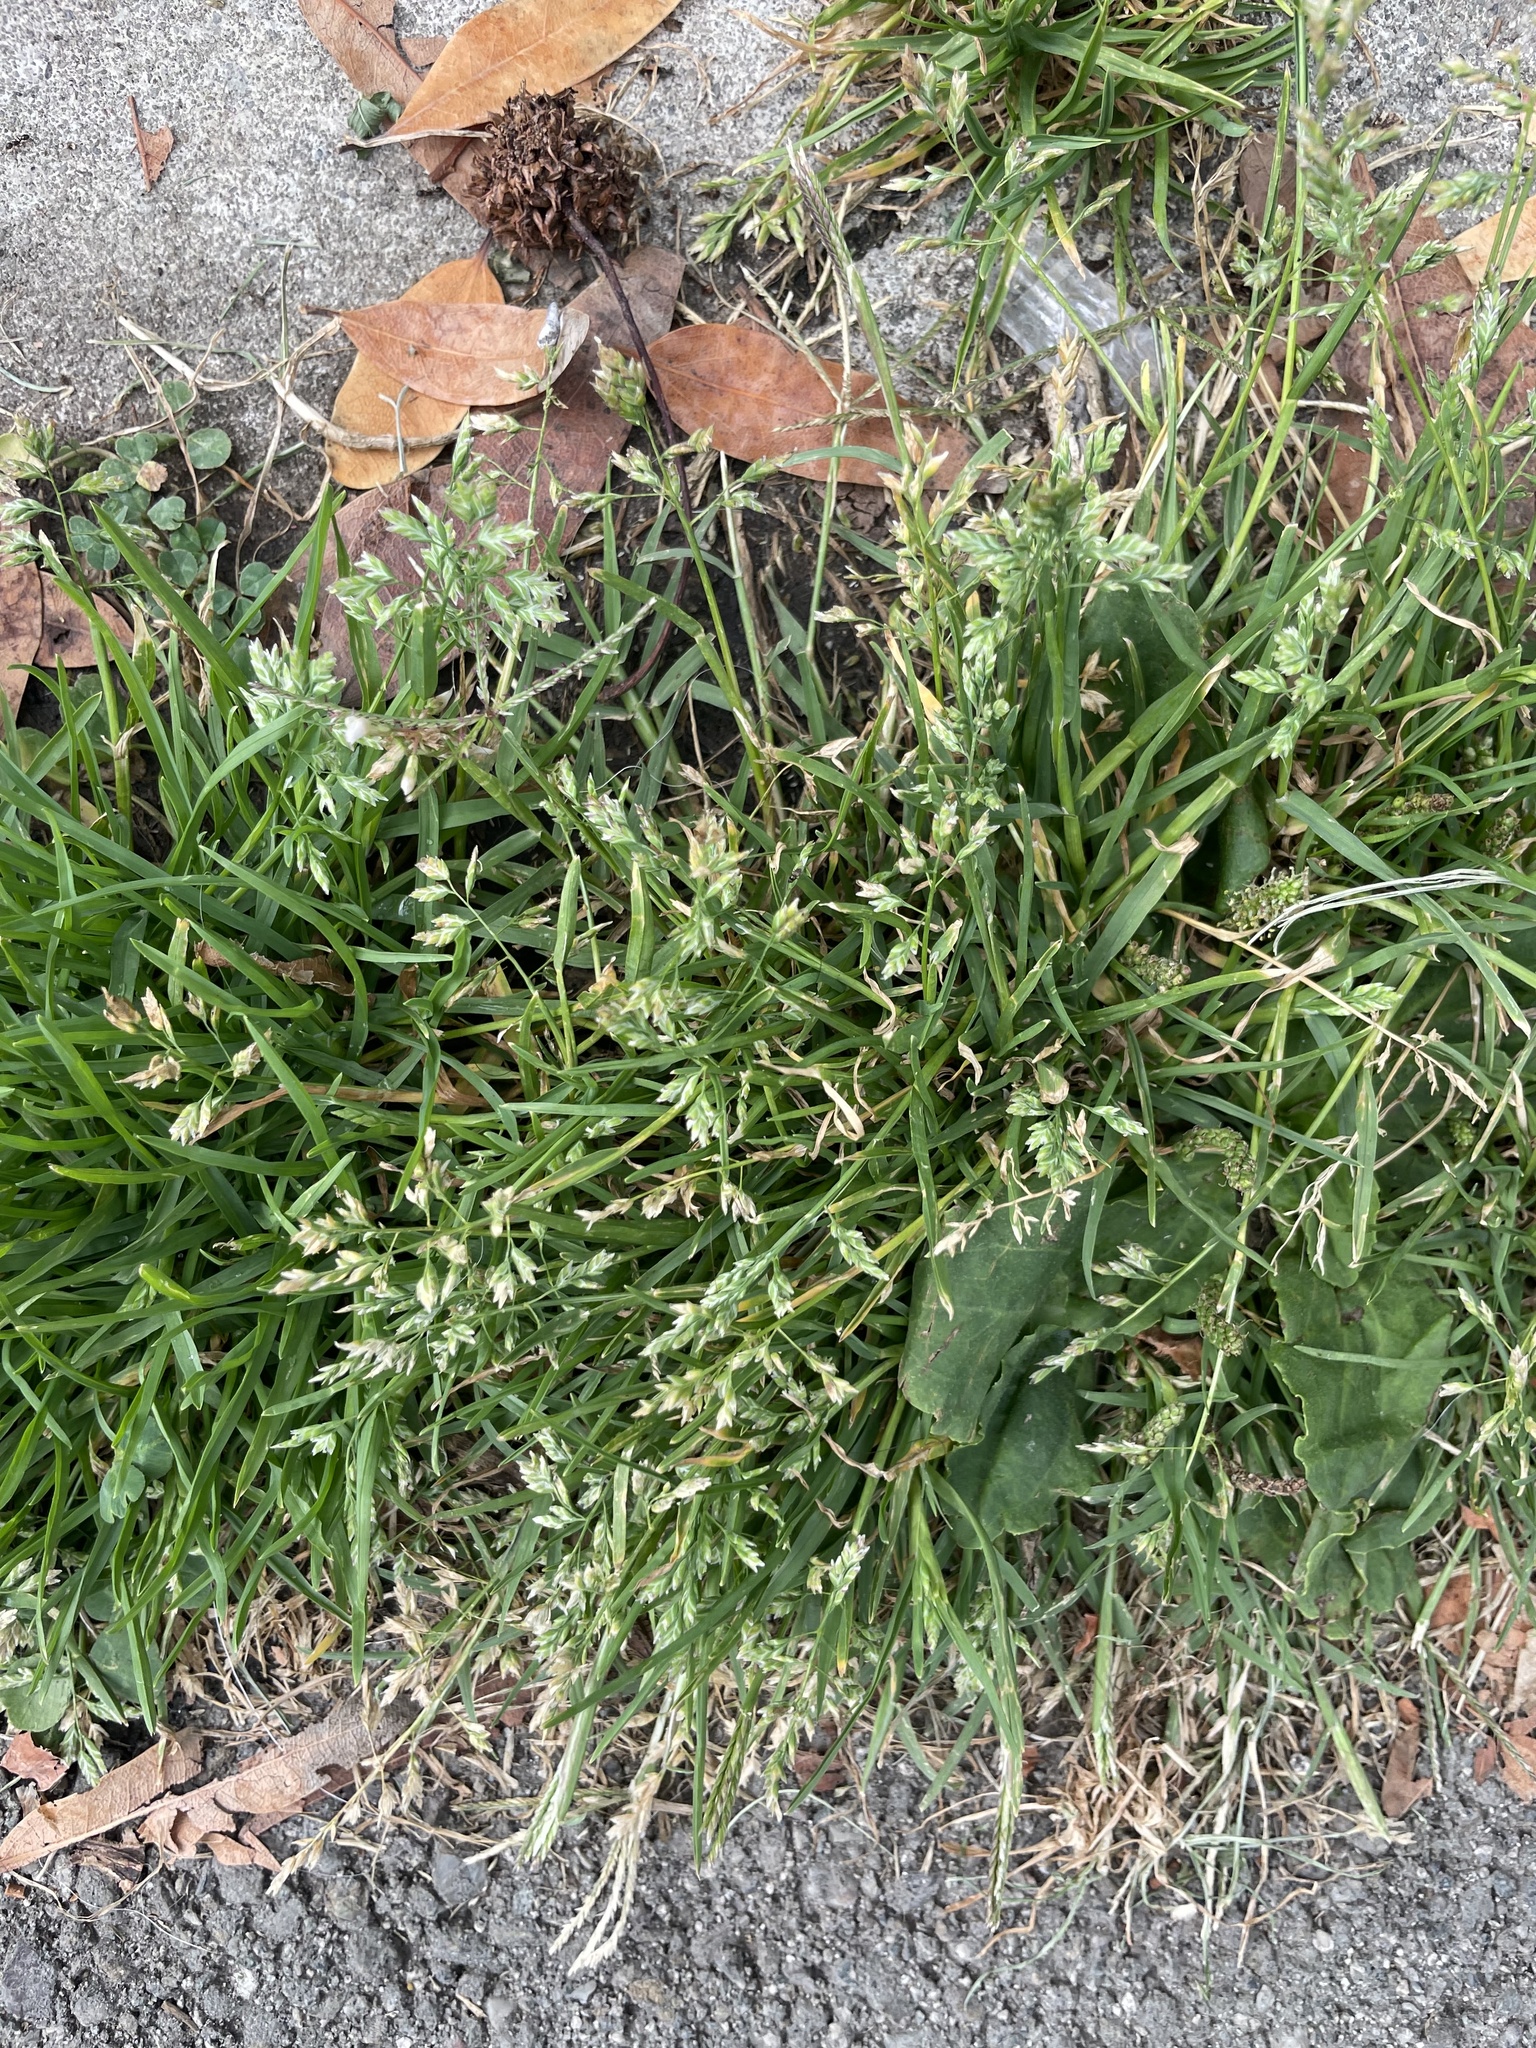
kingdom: Plantae
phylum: Tracheophyta
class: Liliopsida
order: Poales
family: Poaceae
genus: Poa
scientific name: Poa annua
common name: Annual bluegrass
